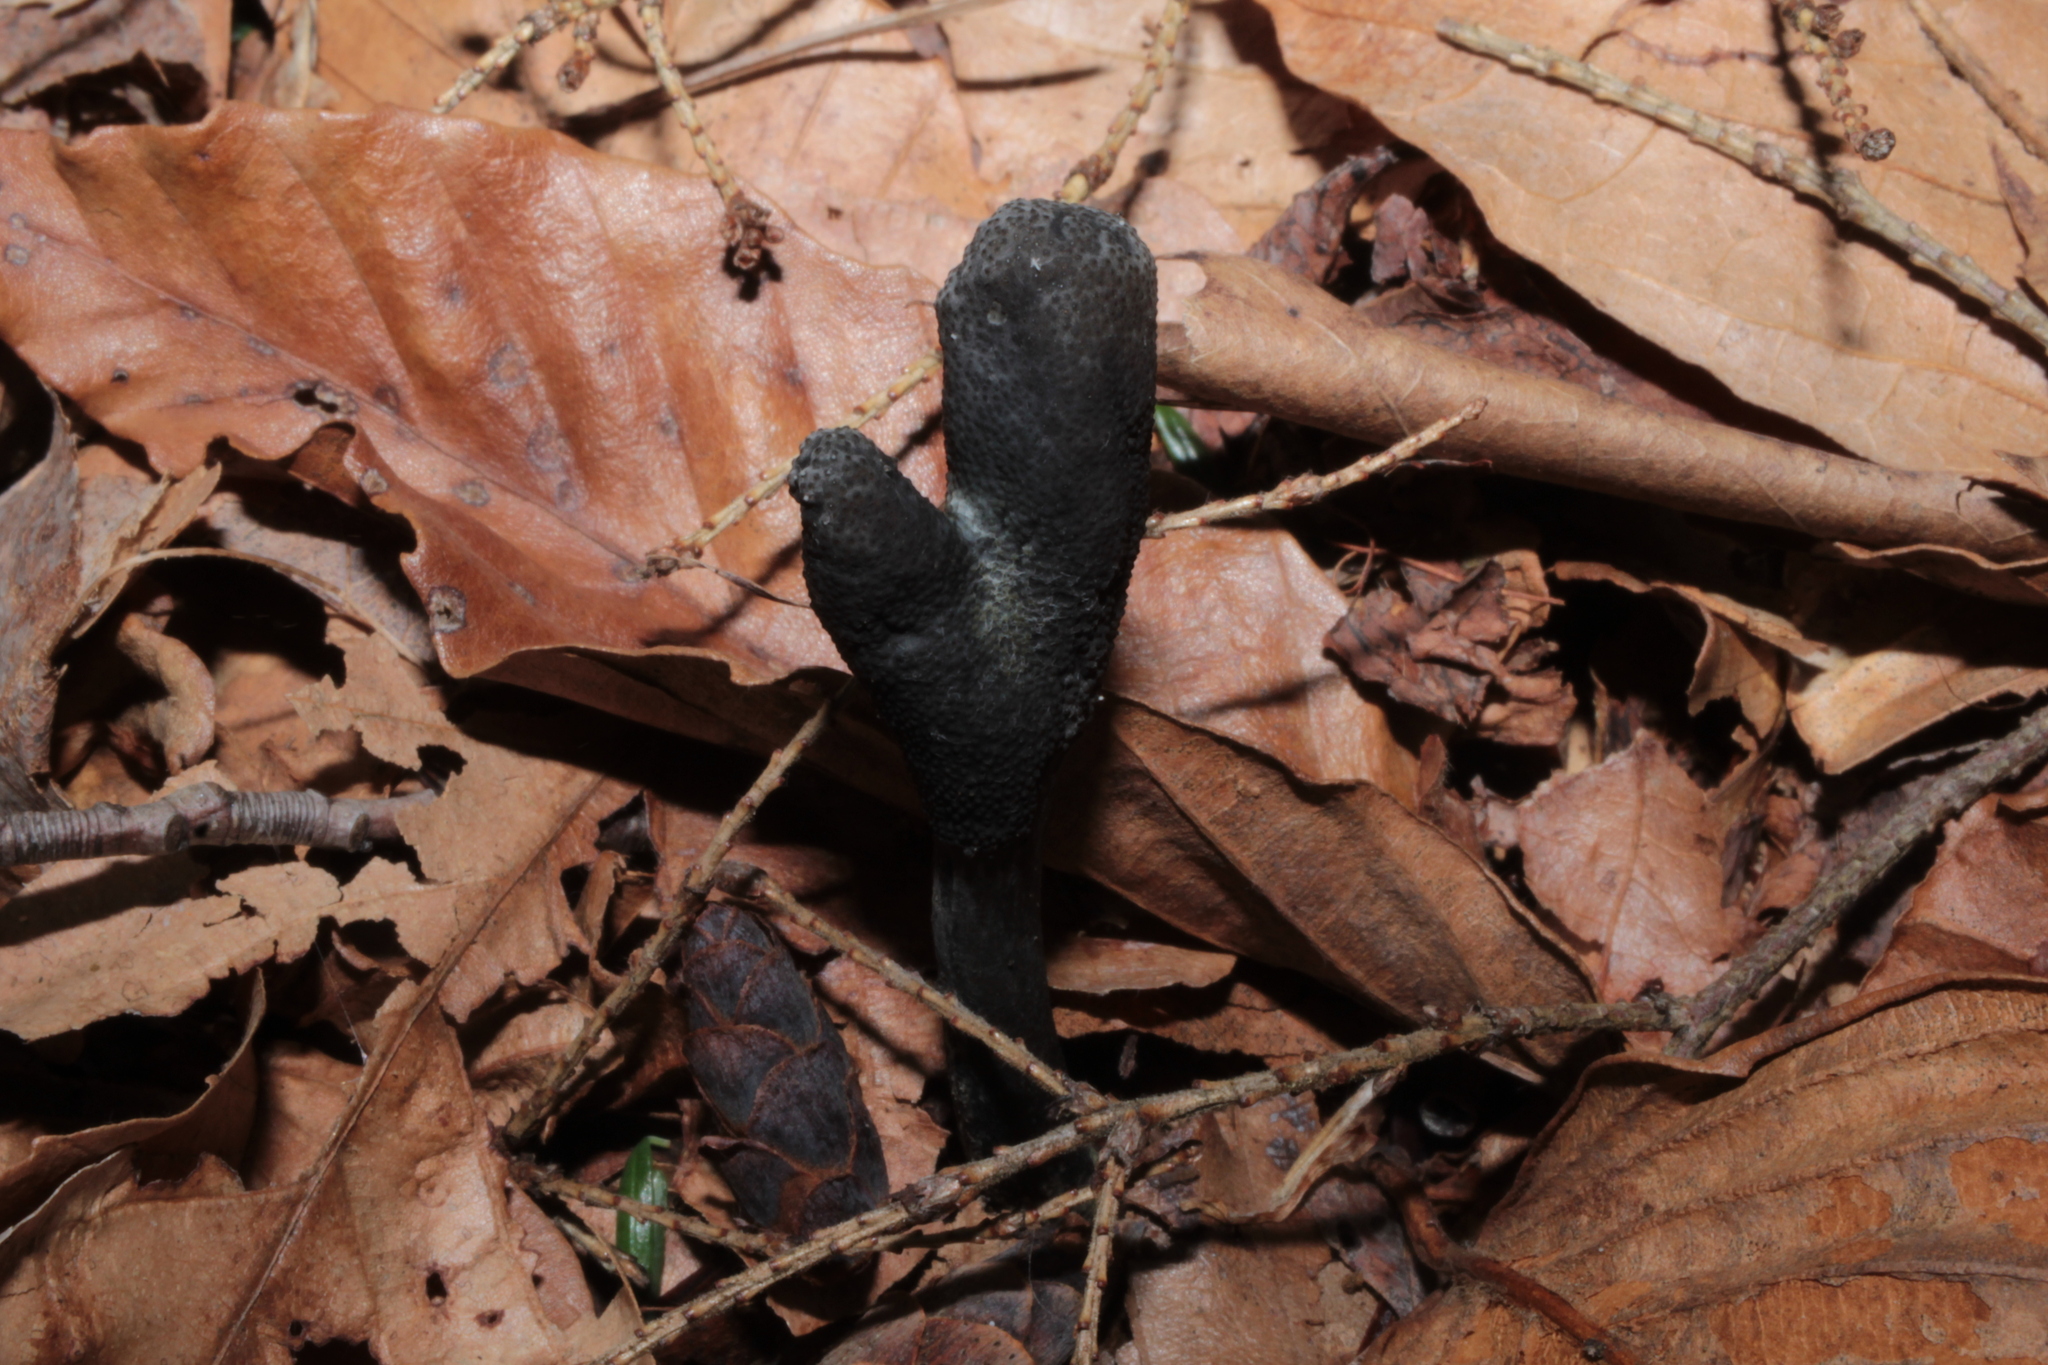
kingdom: Fungi
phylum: Ascomycota
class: Sordariomycetes
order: Hypocreales
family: Ophiocordycipitaceae
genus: Tolypocladium
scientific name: Tolypocladium ophioglossoides
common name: Snaketongue truffleclub
